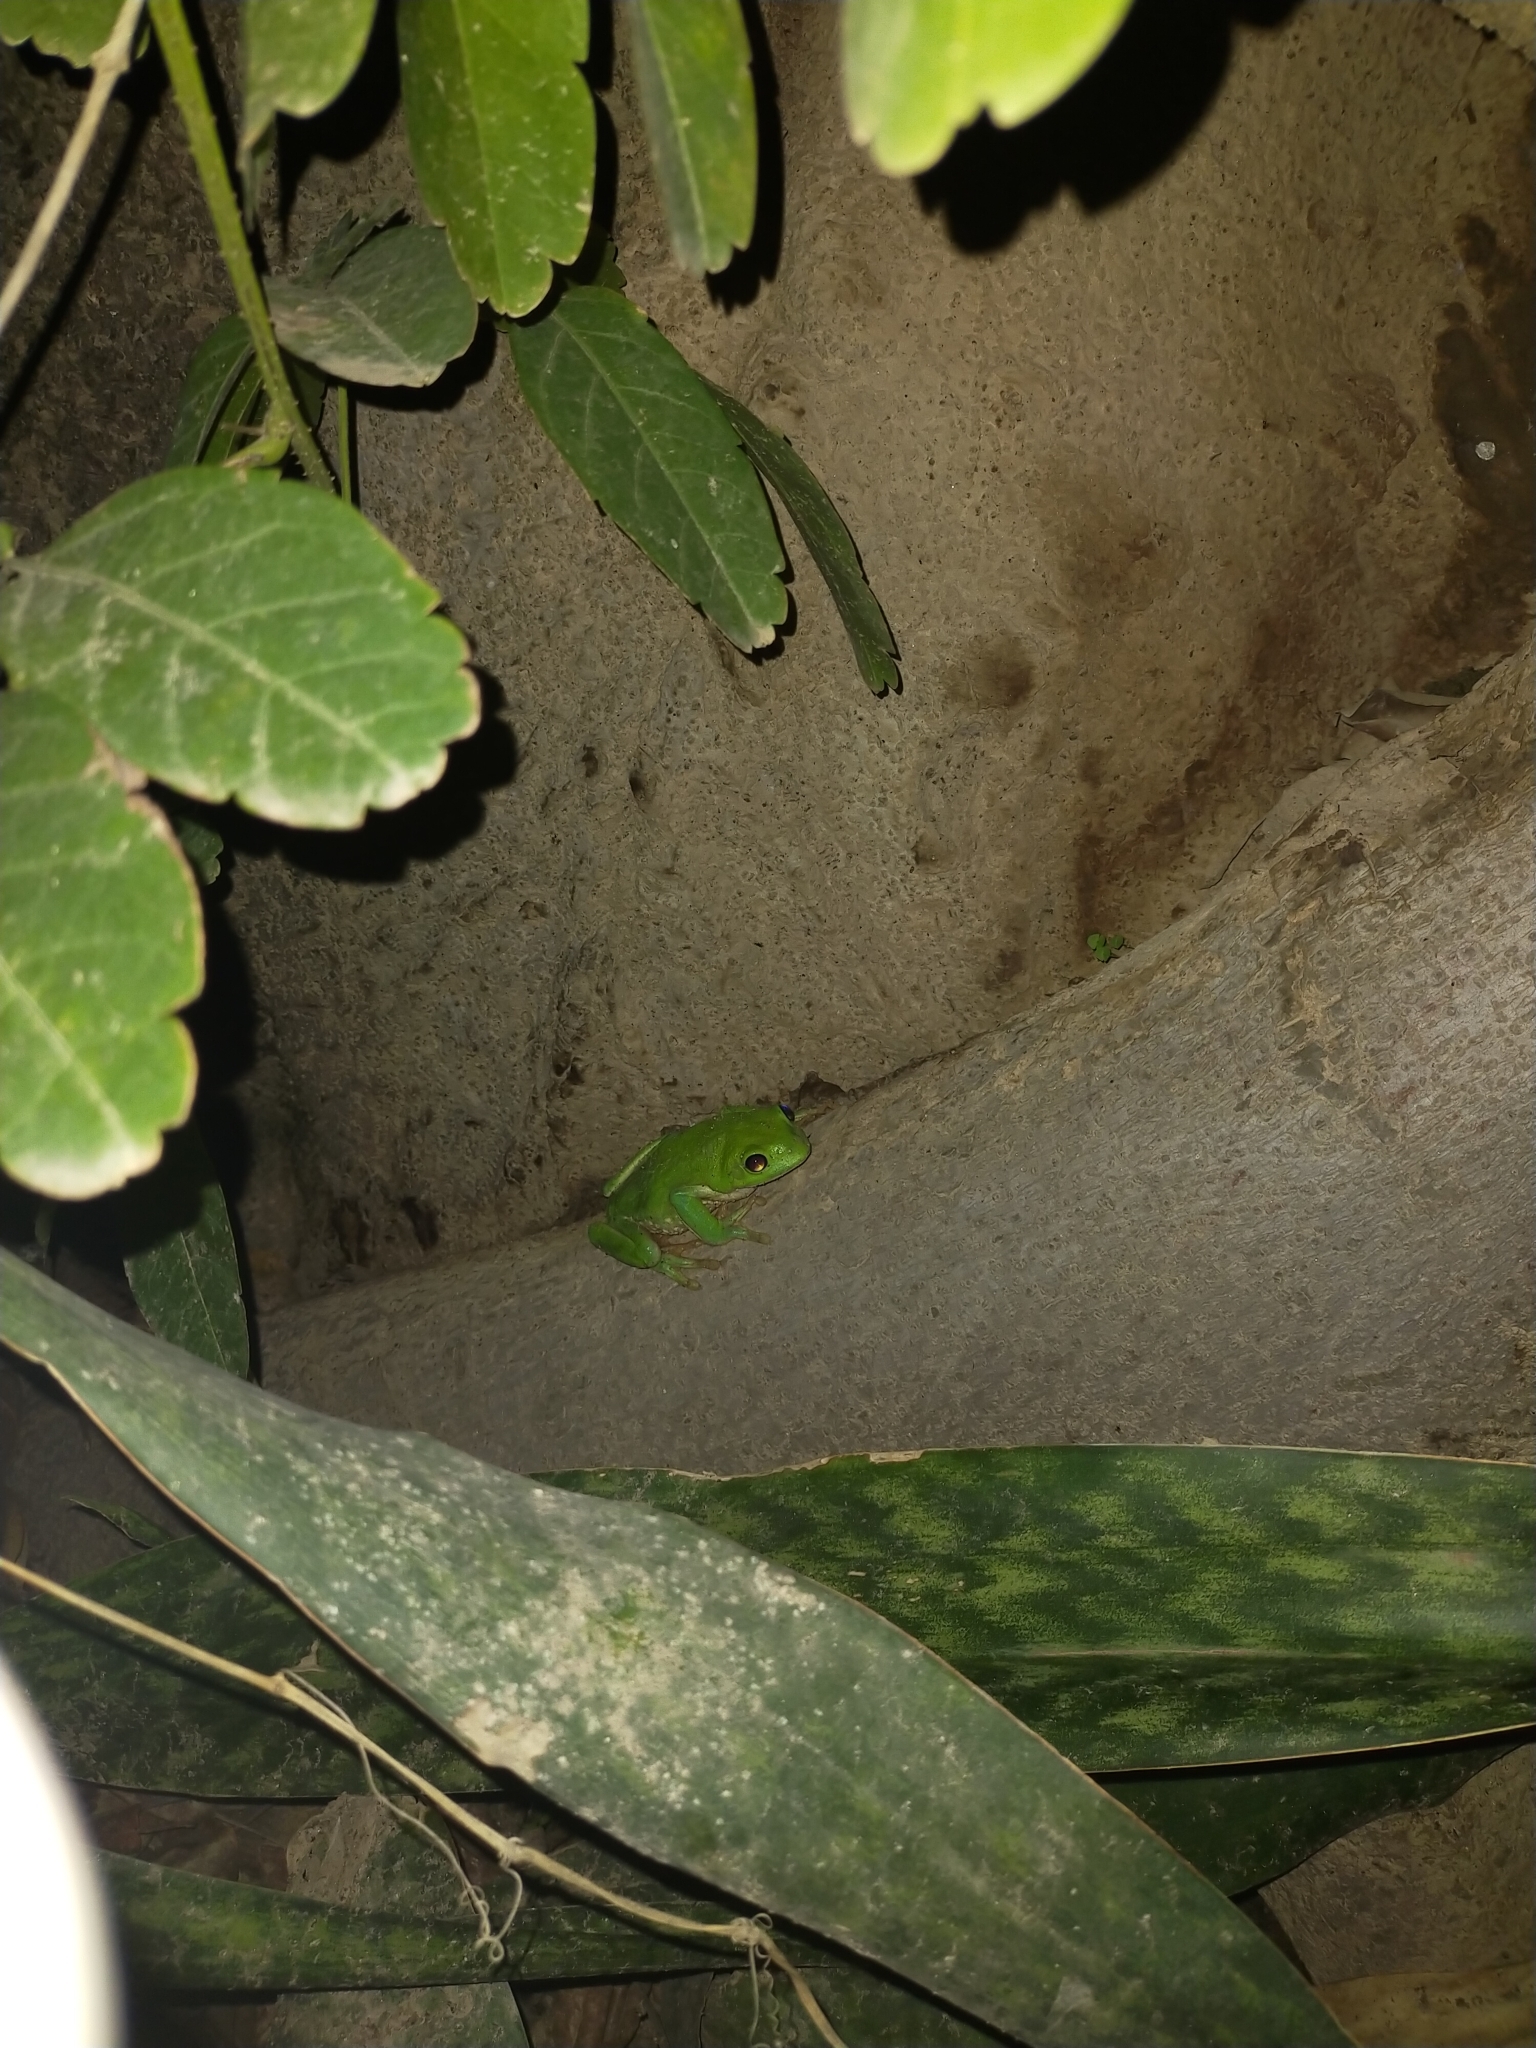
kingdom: Animalia
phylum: Chordata
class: Amphibia
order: Anura
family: Phyllomedusidae
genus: Agalychnis
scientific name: Agalychnis dacnicolor
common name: Mexican giant tree frog
